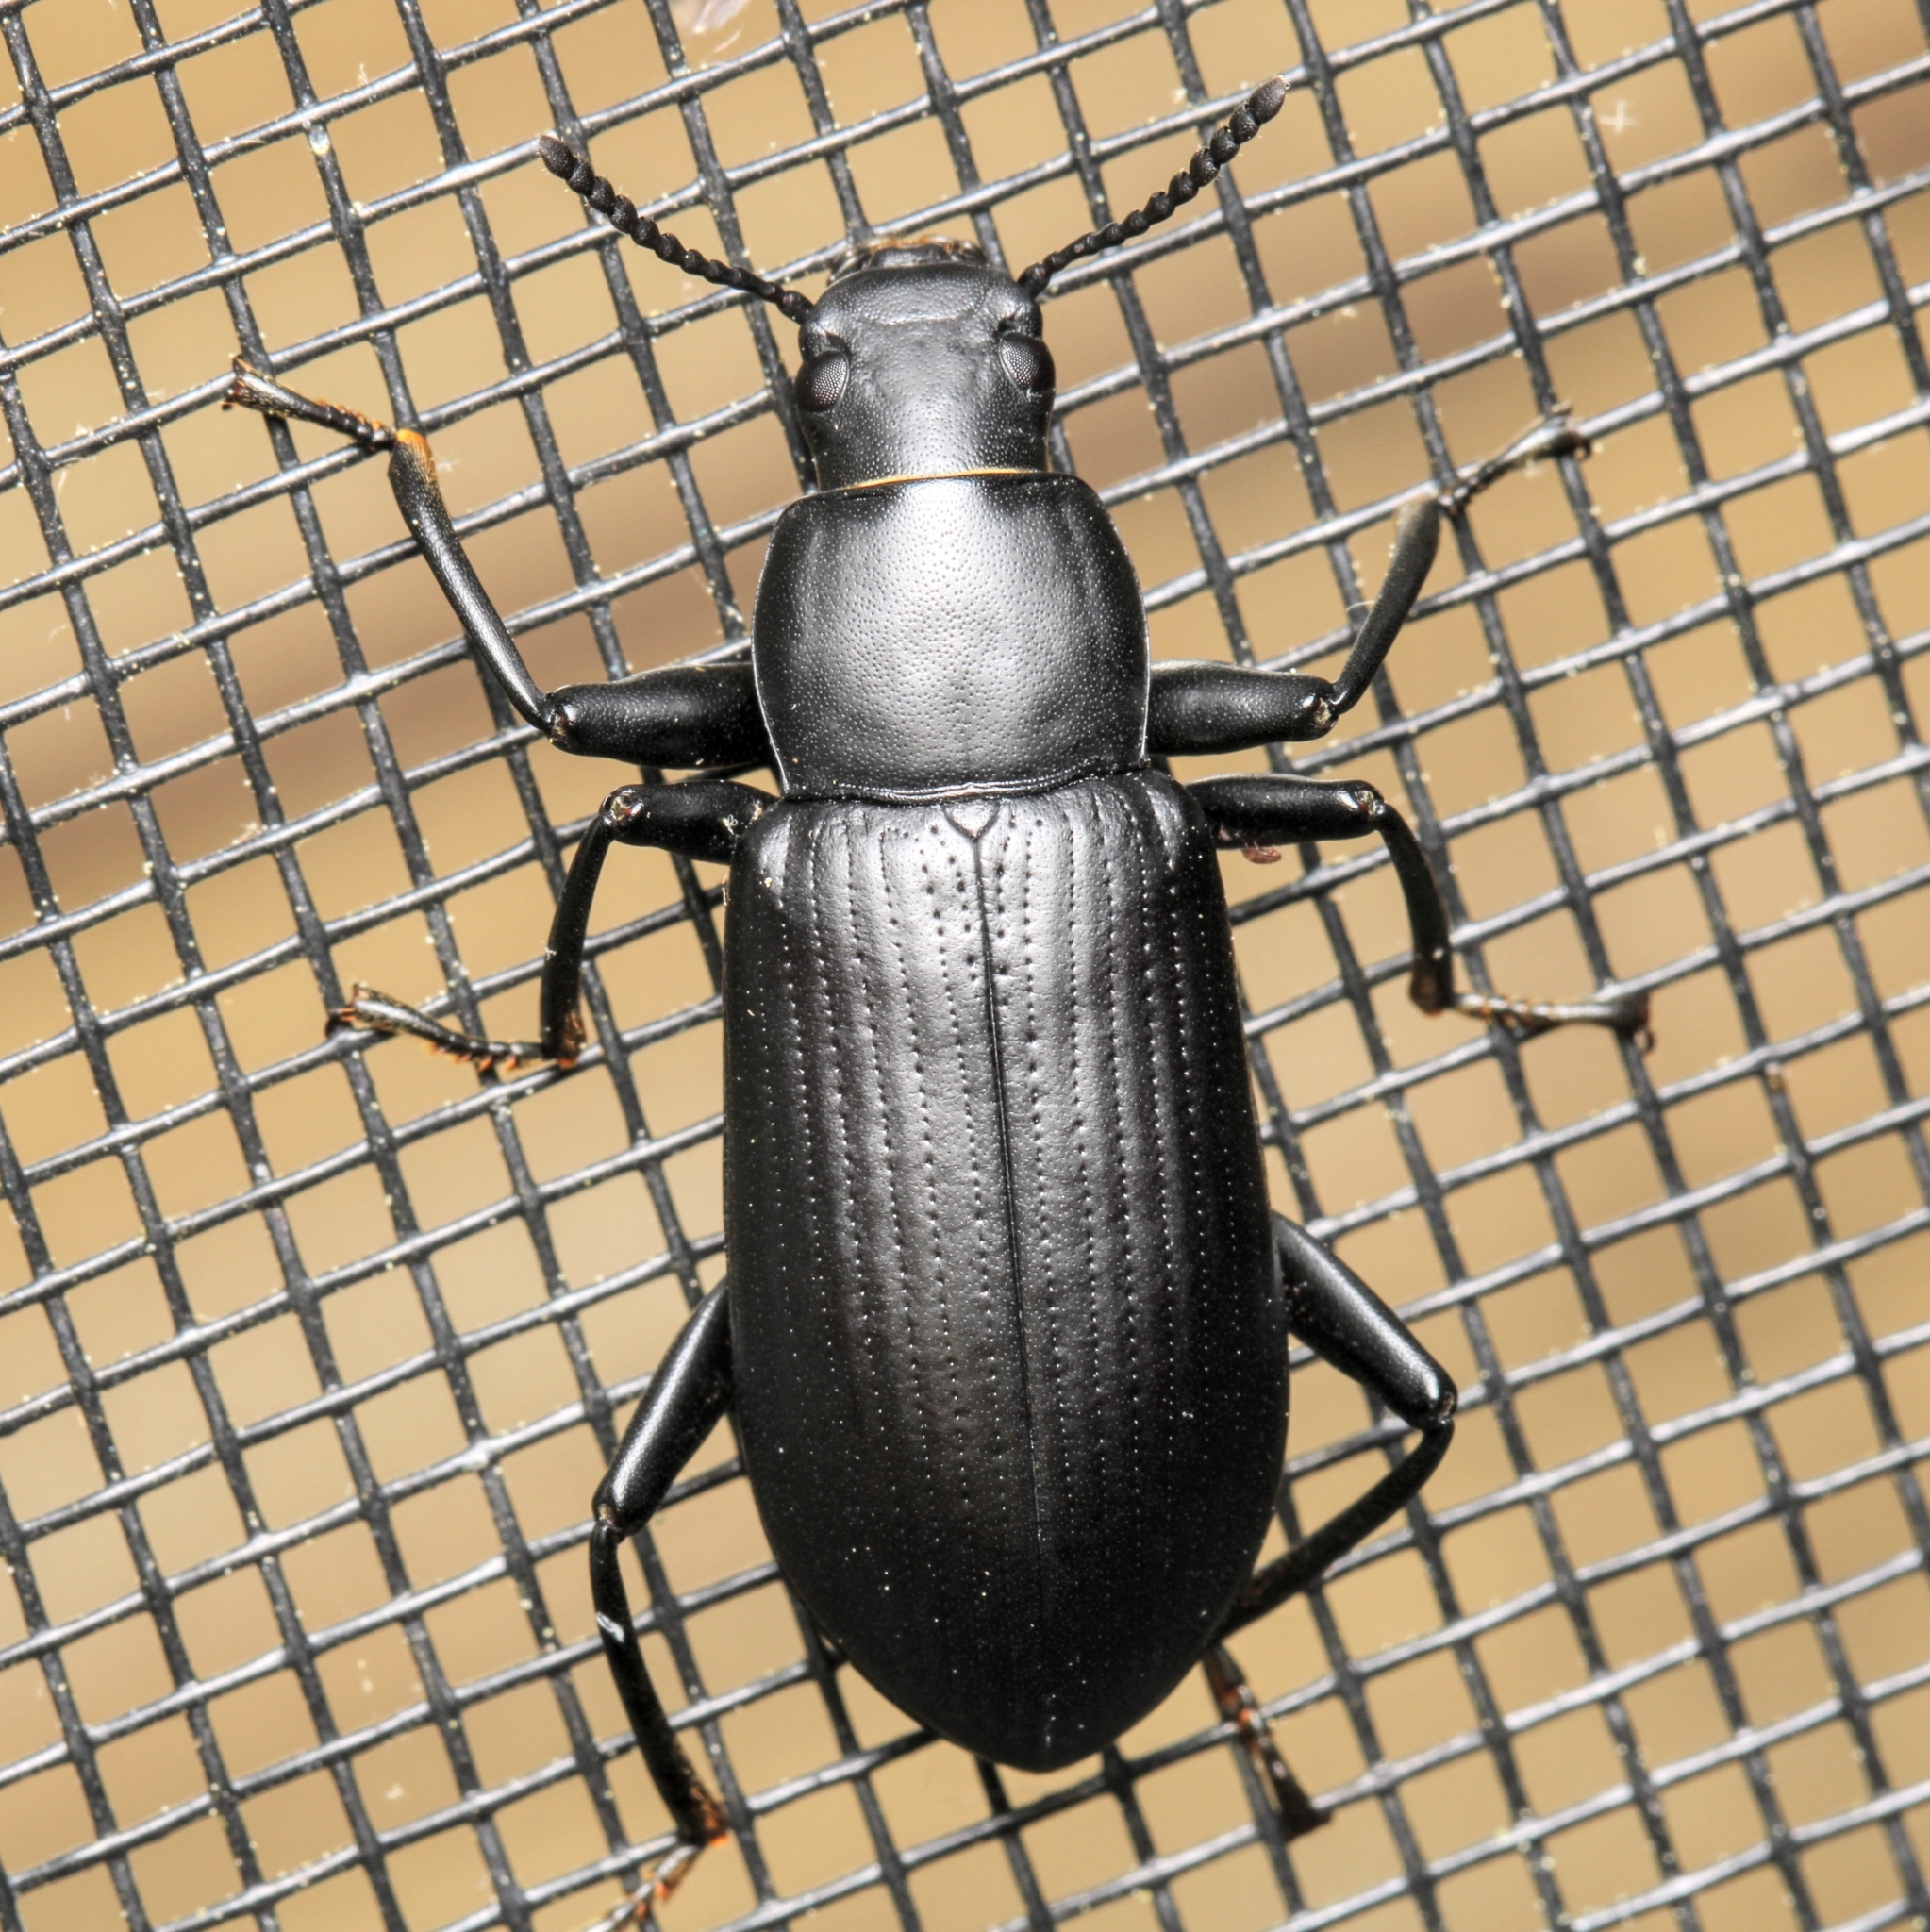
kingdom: Animalia
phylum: Arthropoda
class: Insecta
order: Coleoptera
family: Tenebrionidae
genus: Alobates
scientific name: Alobates
